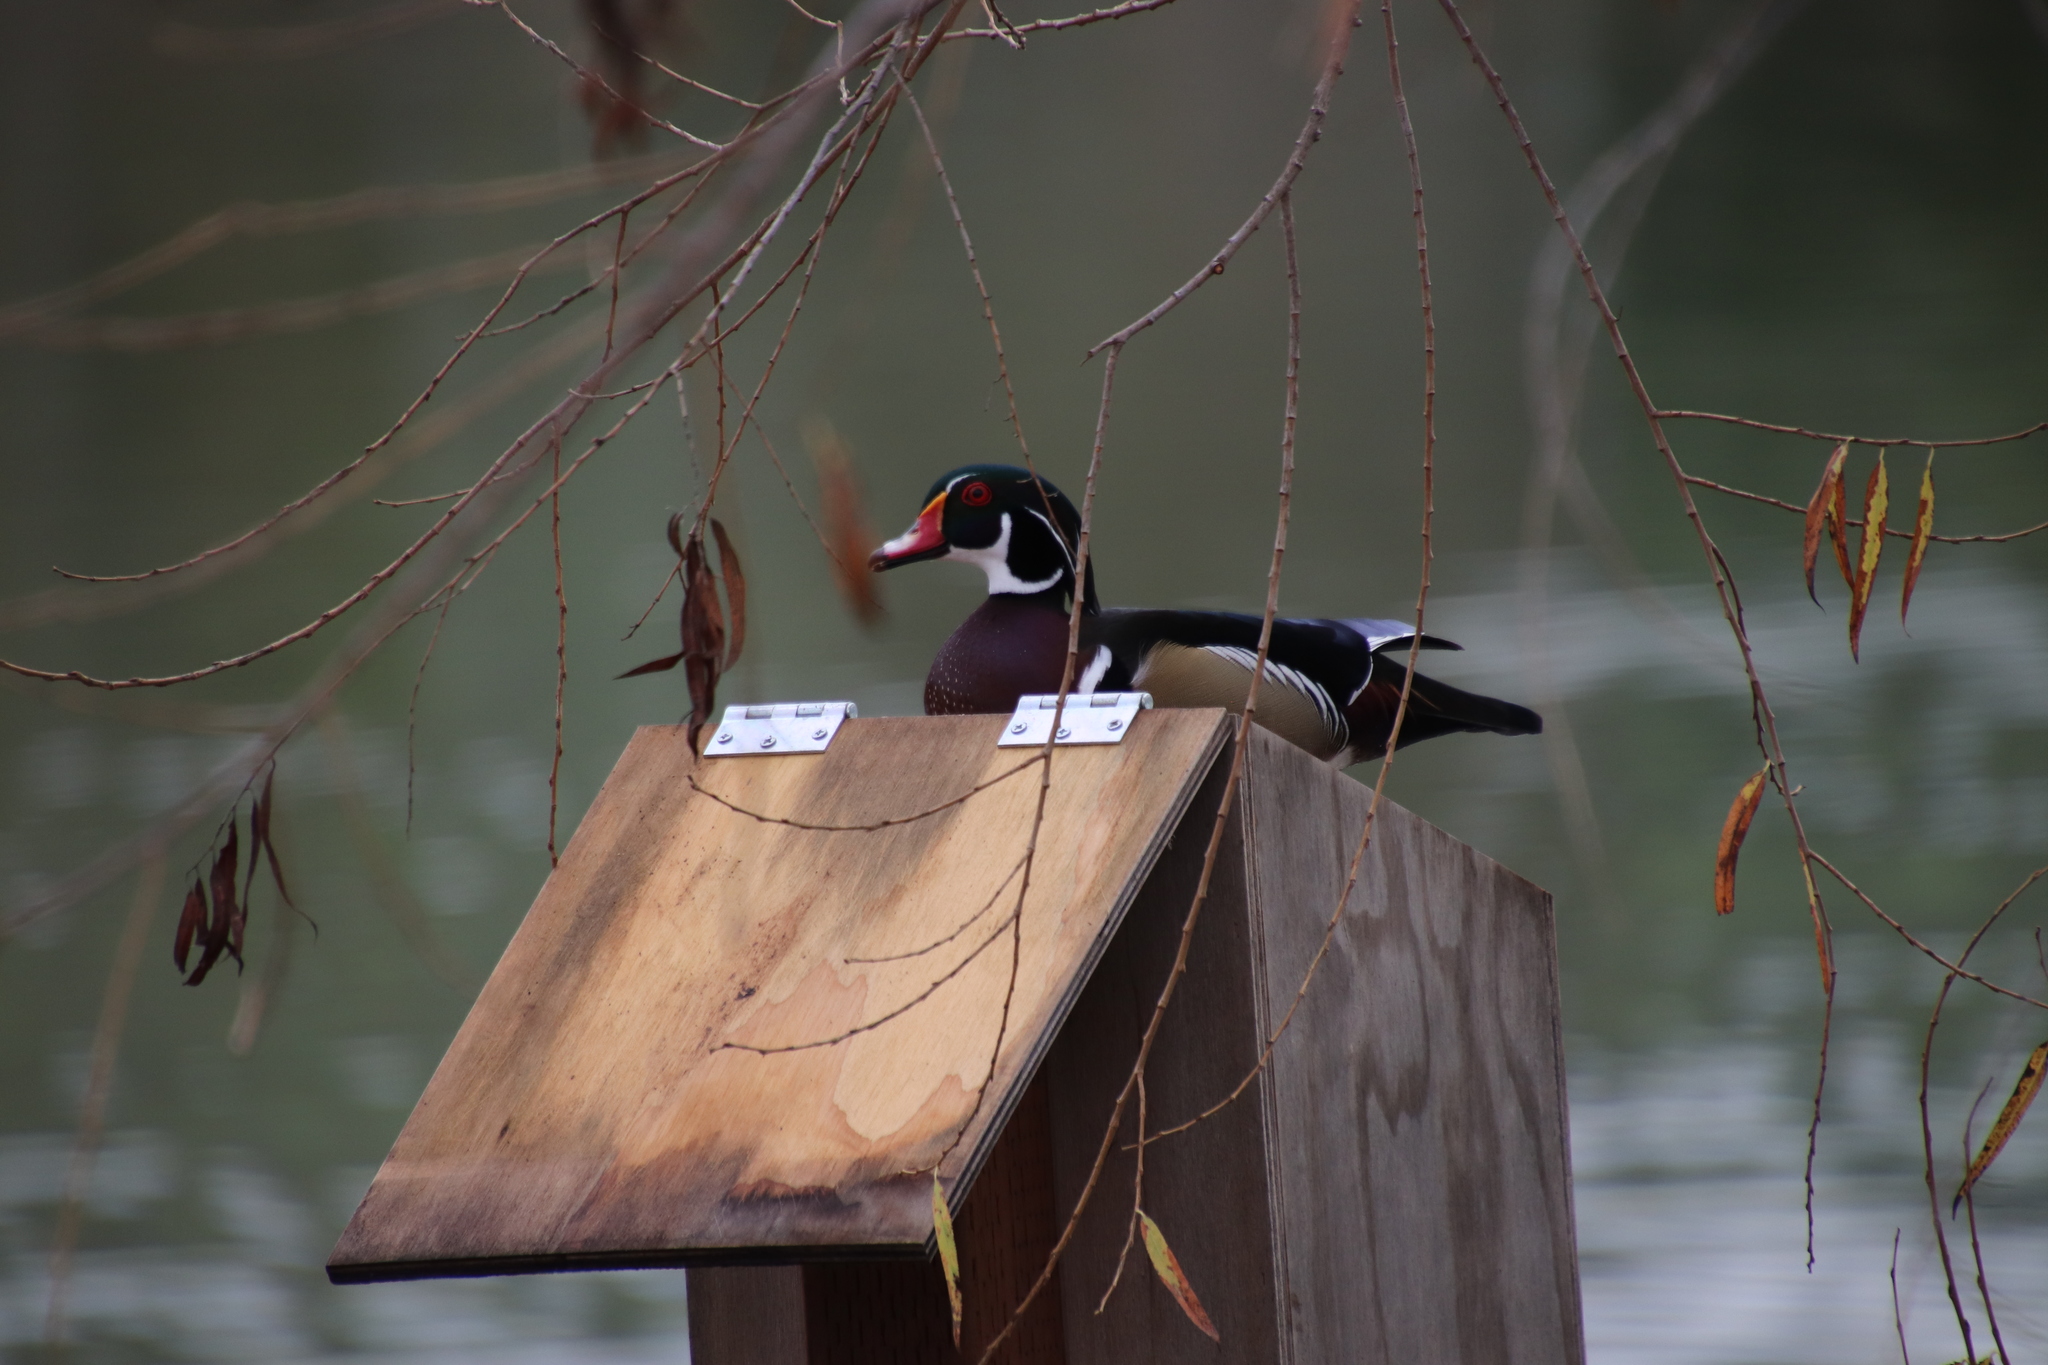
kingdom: Animalia
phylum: Chordata
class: Aves
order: Anseriformes
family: Anatidae
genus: Aix
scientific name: Aix sponsa
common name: Wood duck
